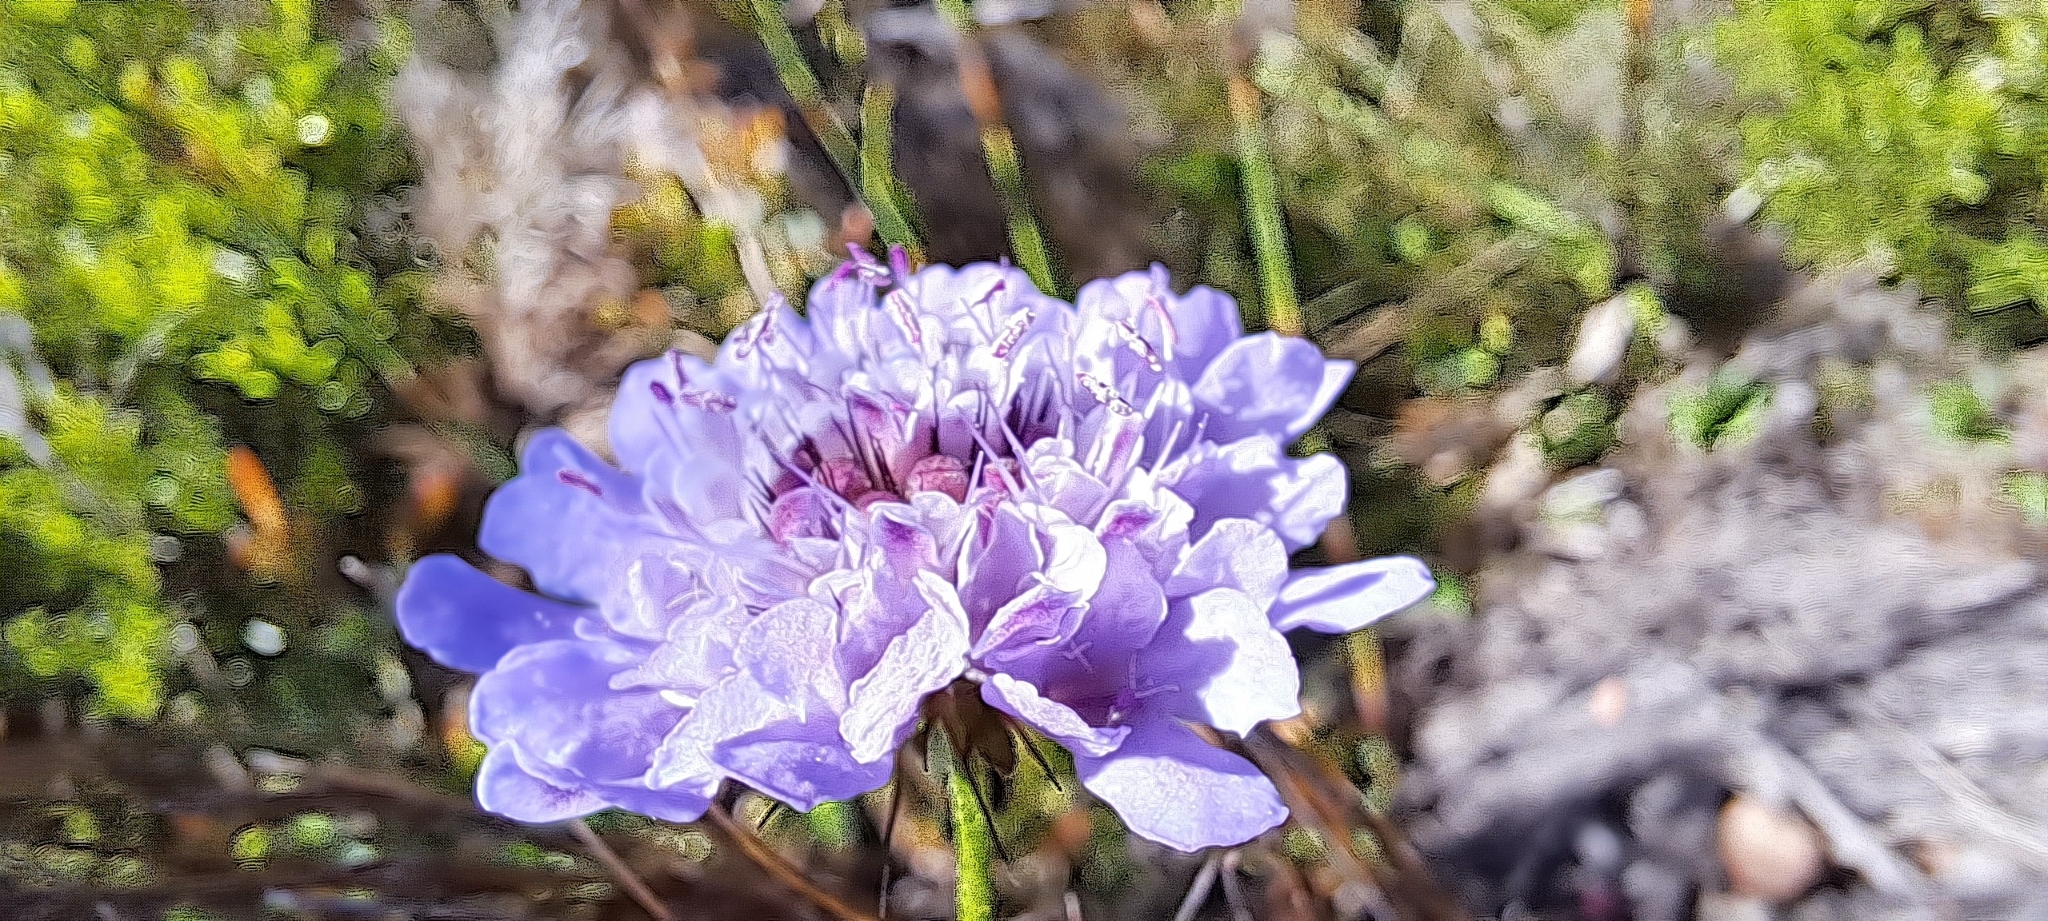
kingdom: Plantae
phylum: Tracheophyta
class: Magnoliopsida
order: Dipsacales
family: Caprifoliaceae
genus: Scabiosa
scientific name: Scabiosa columbaria
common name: Small scabious
